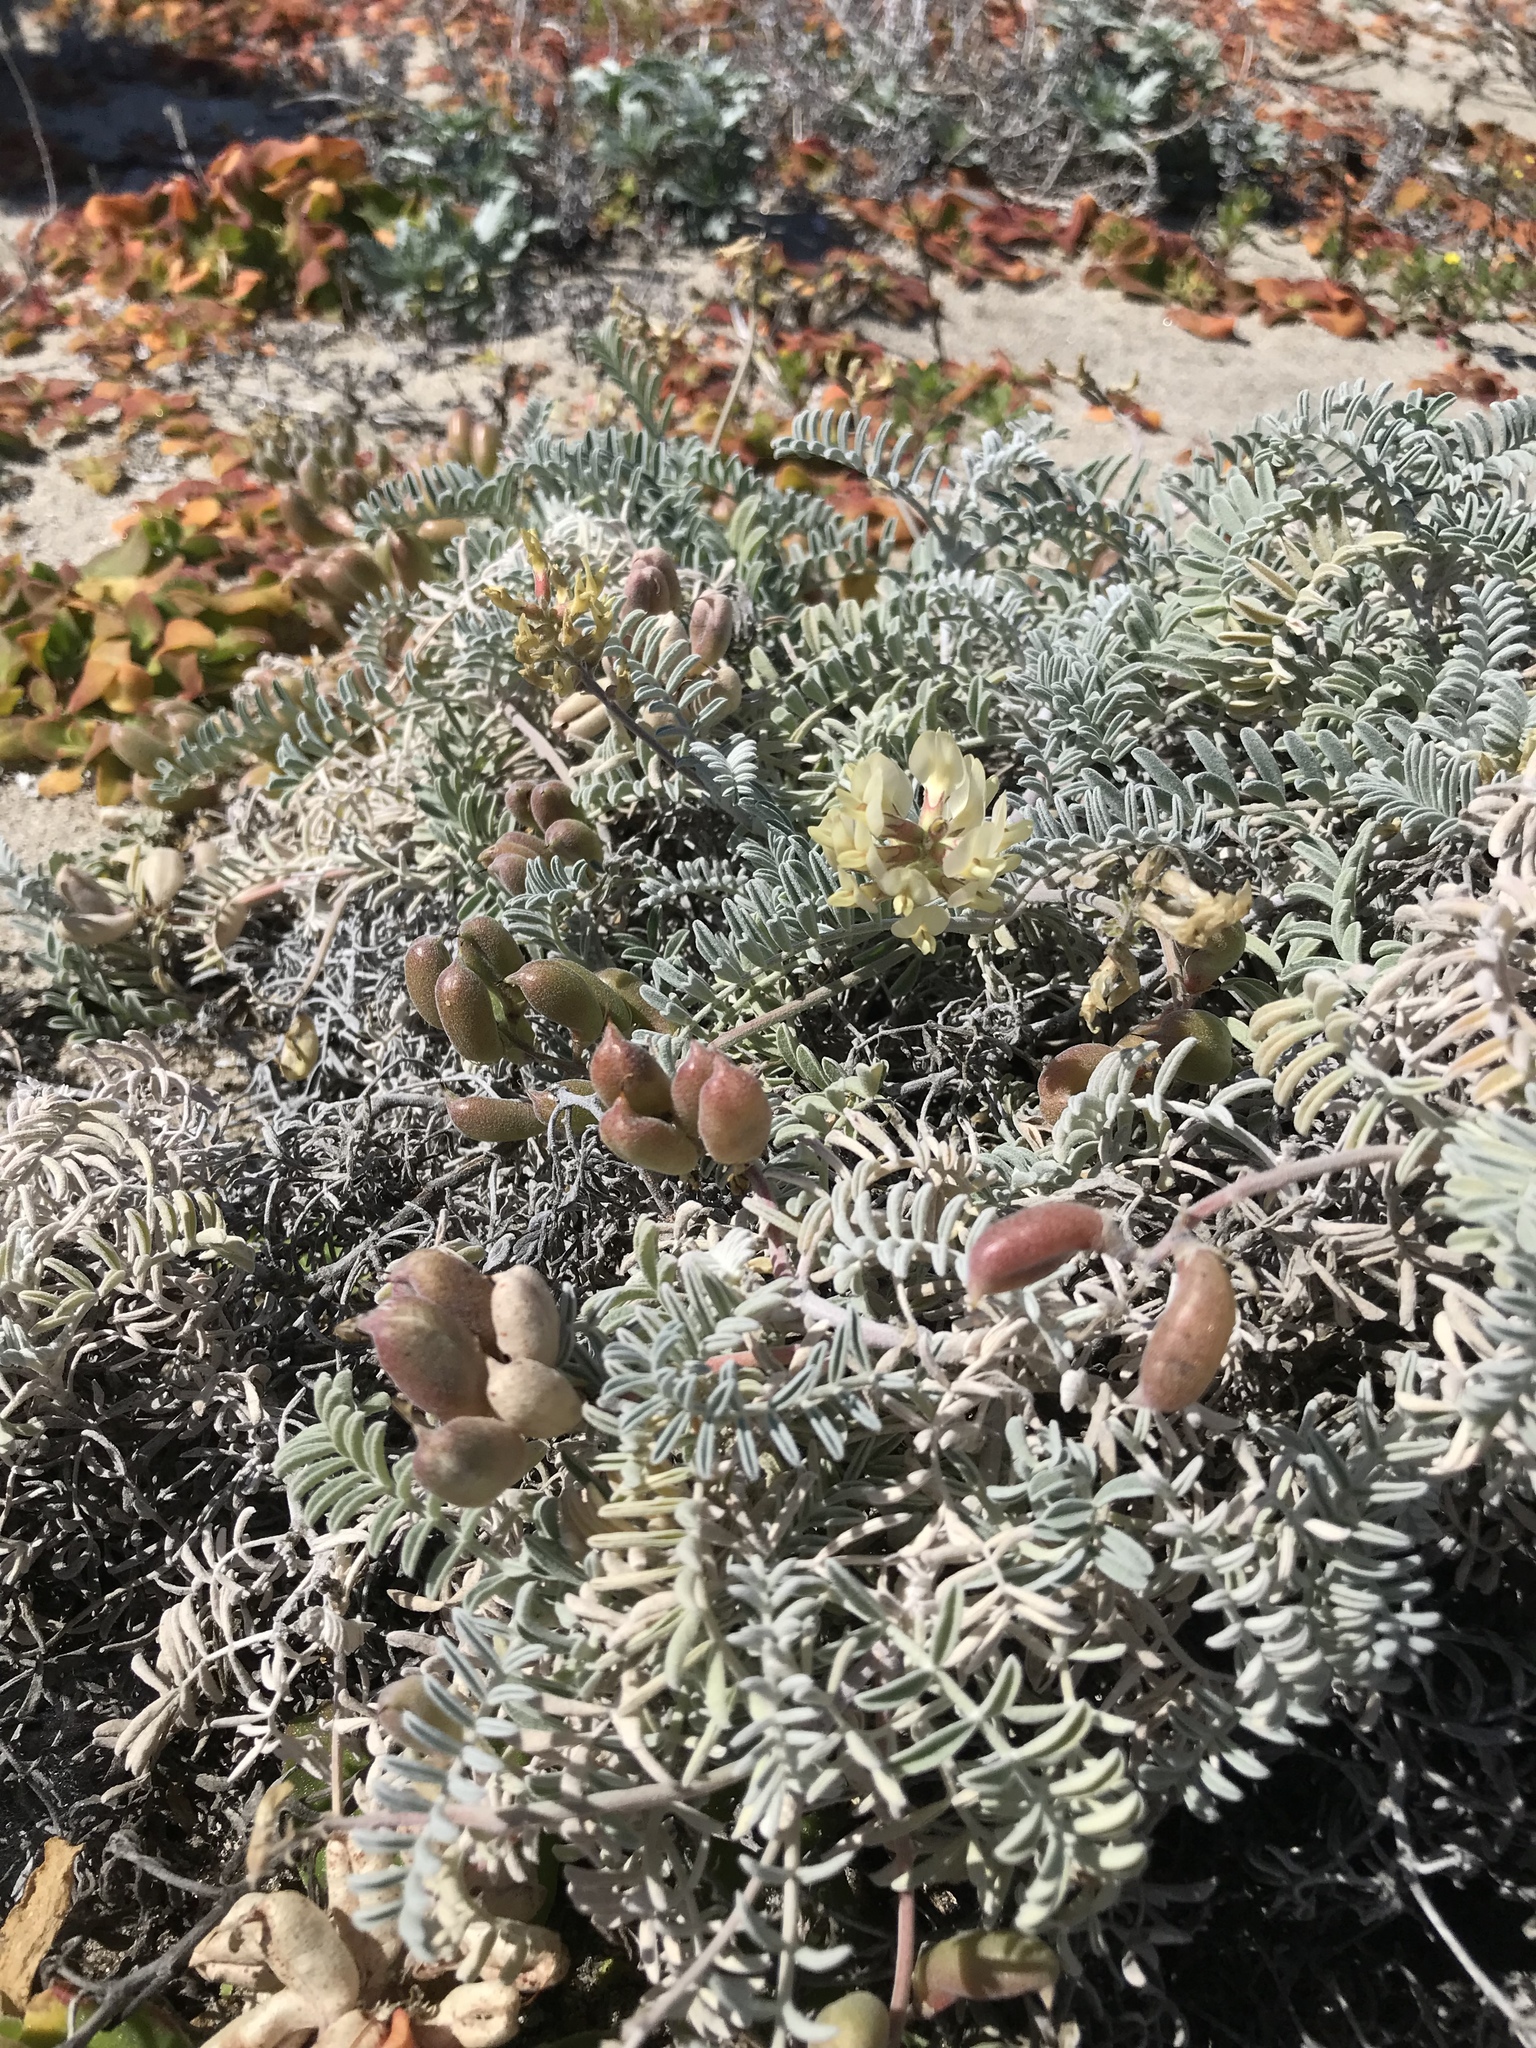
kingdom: Plantae
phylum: Tracheophyta
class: Magnoliopsida
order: Fabales
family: Fabaceae
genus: Astragalus
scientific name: Astragalus miguelensis
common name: San miguel milk-vetch
